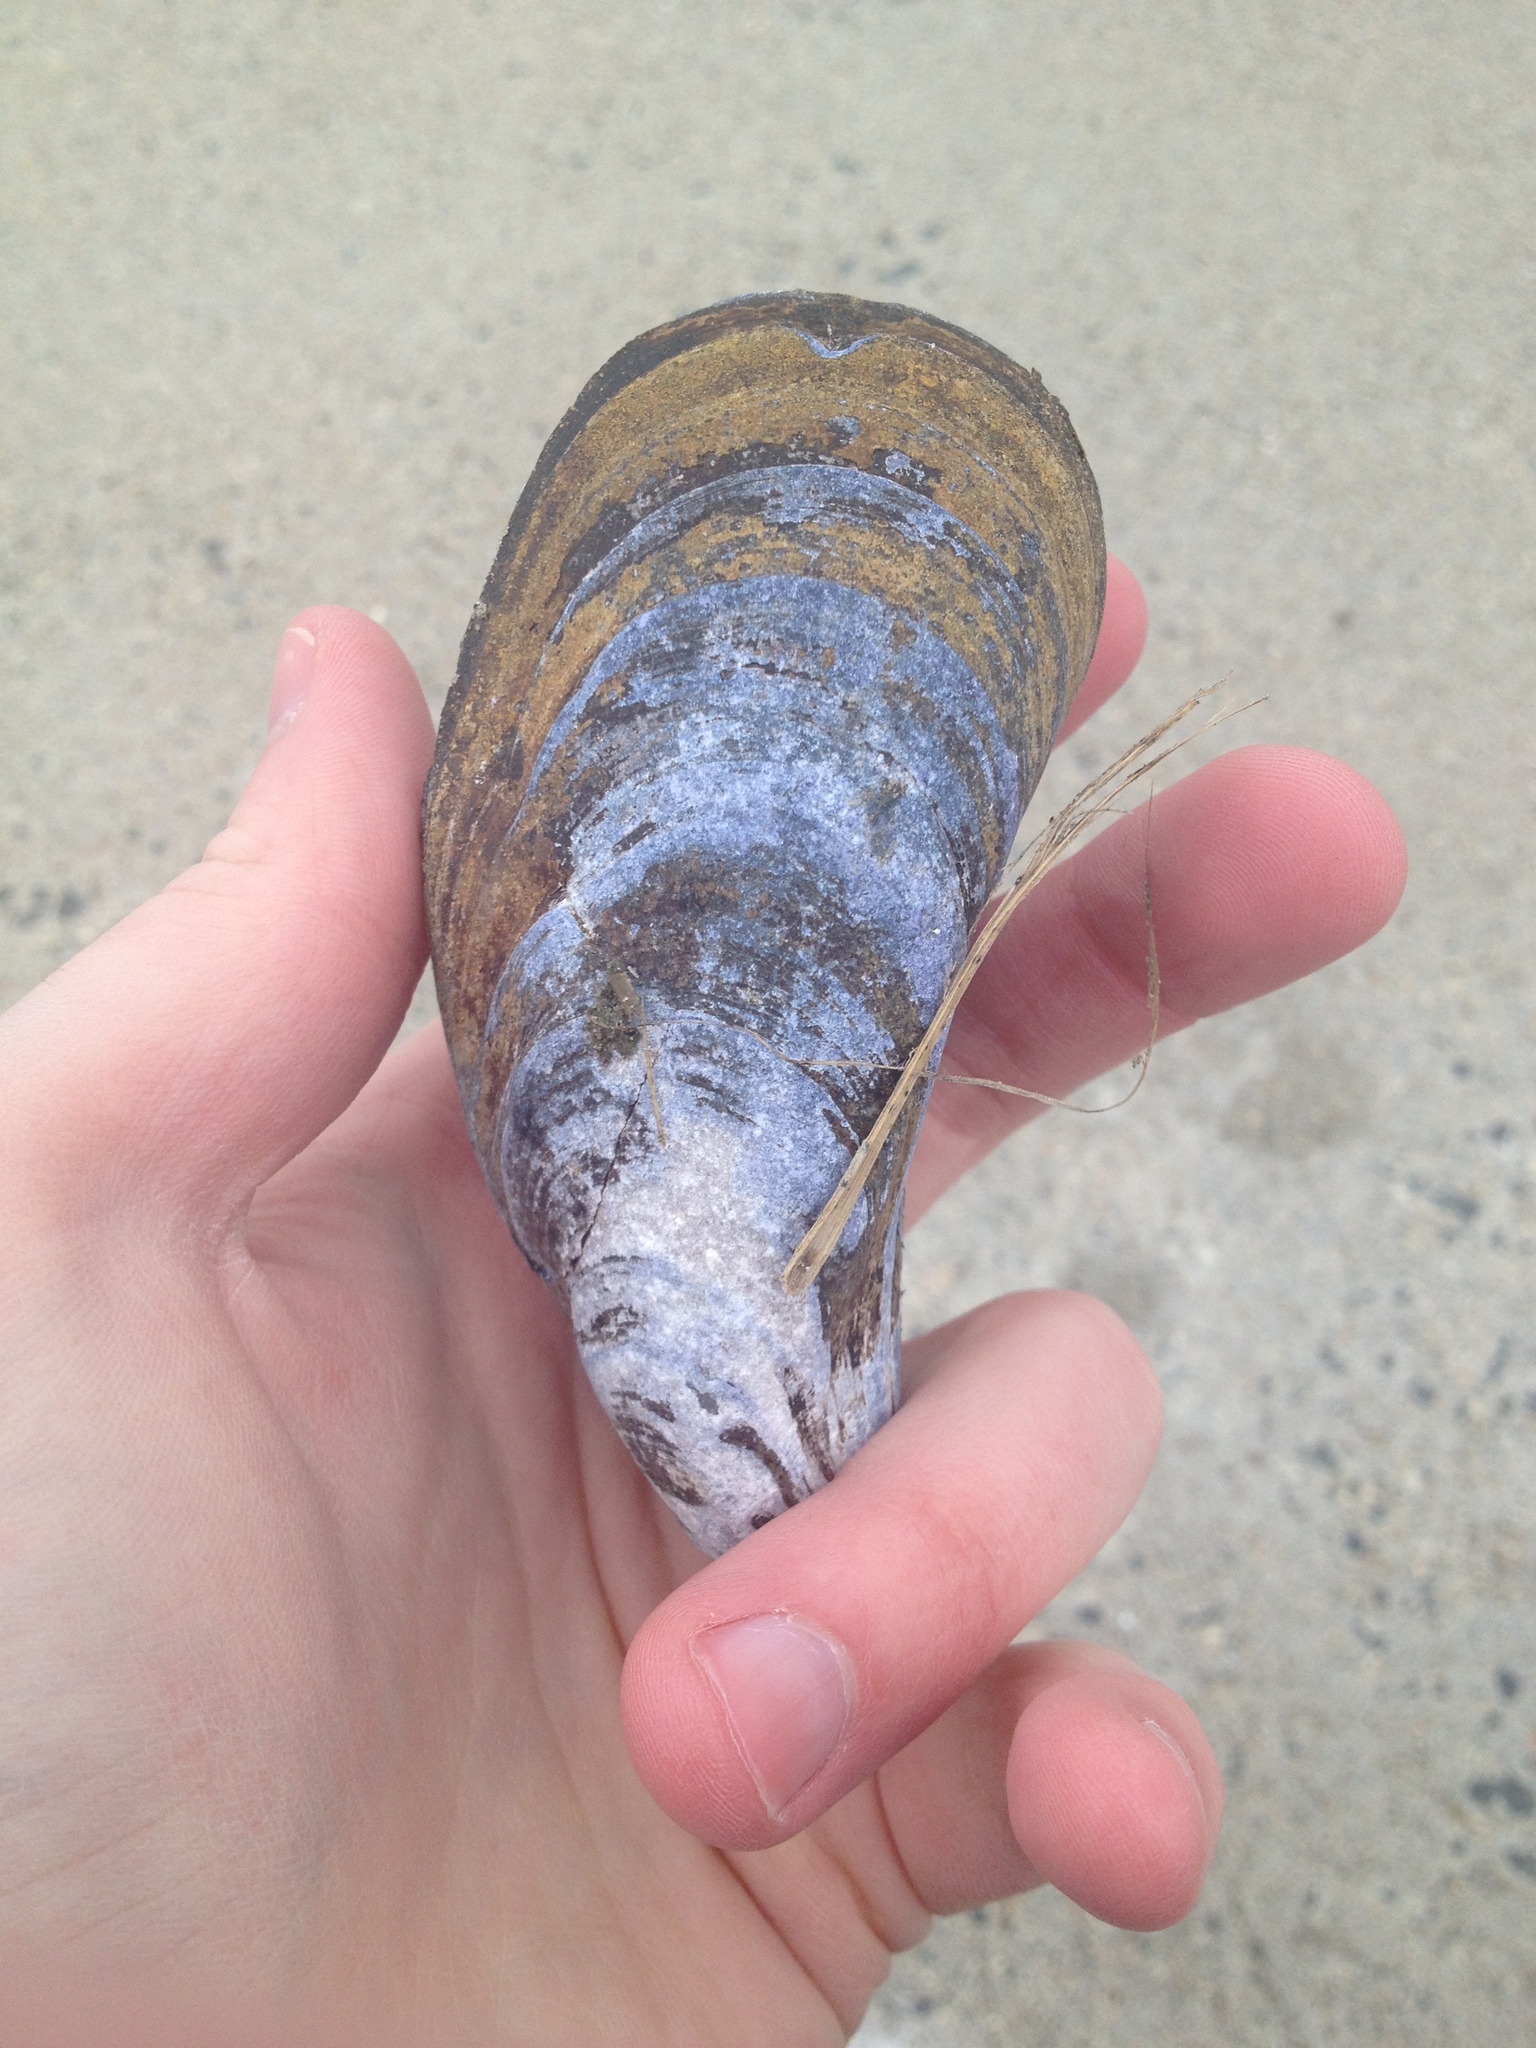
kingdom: Animalia
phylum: Mollusca
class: Bivalvia
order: Mytilida
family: Mytilidae
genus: Mytilus
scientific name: Mytilus edulis
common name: Blue mussel
